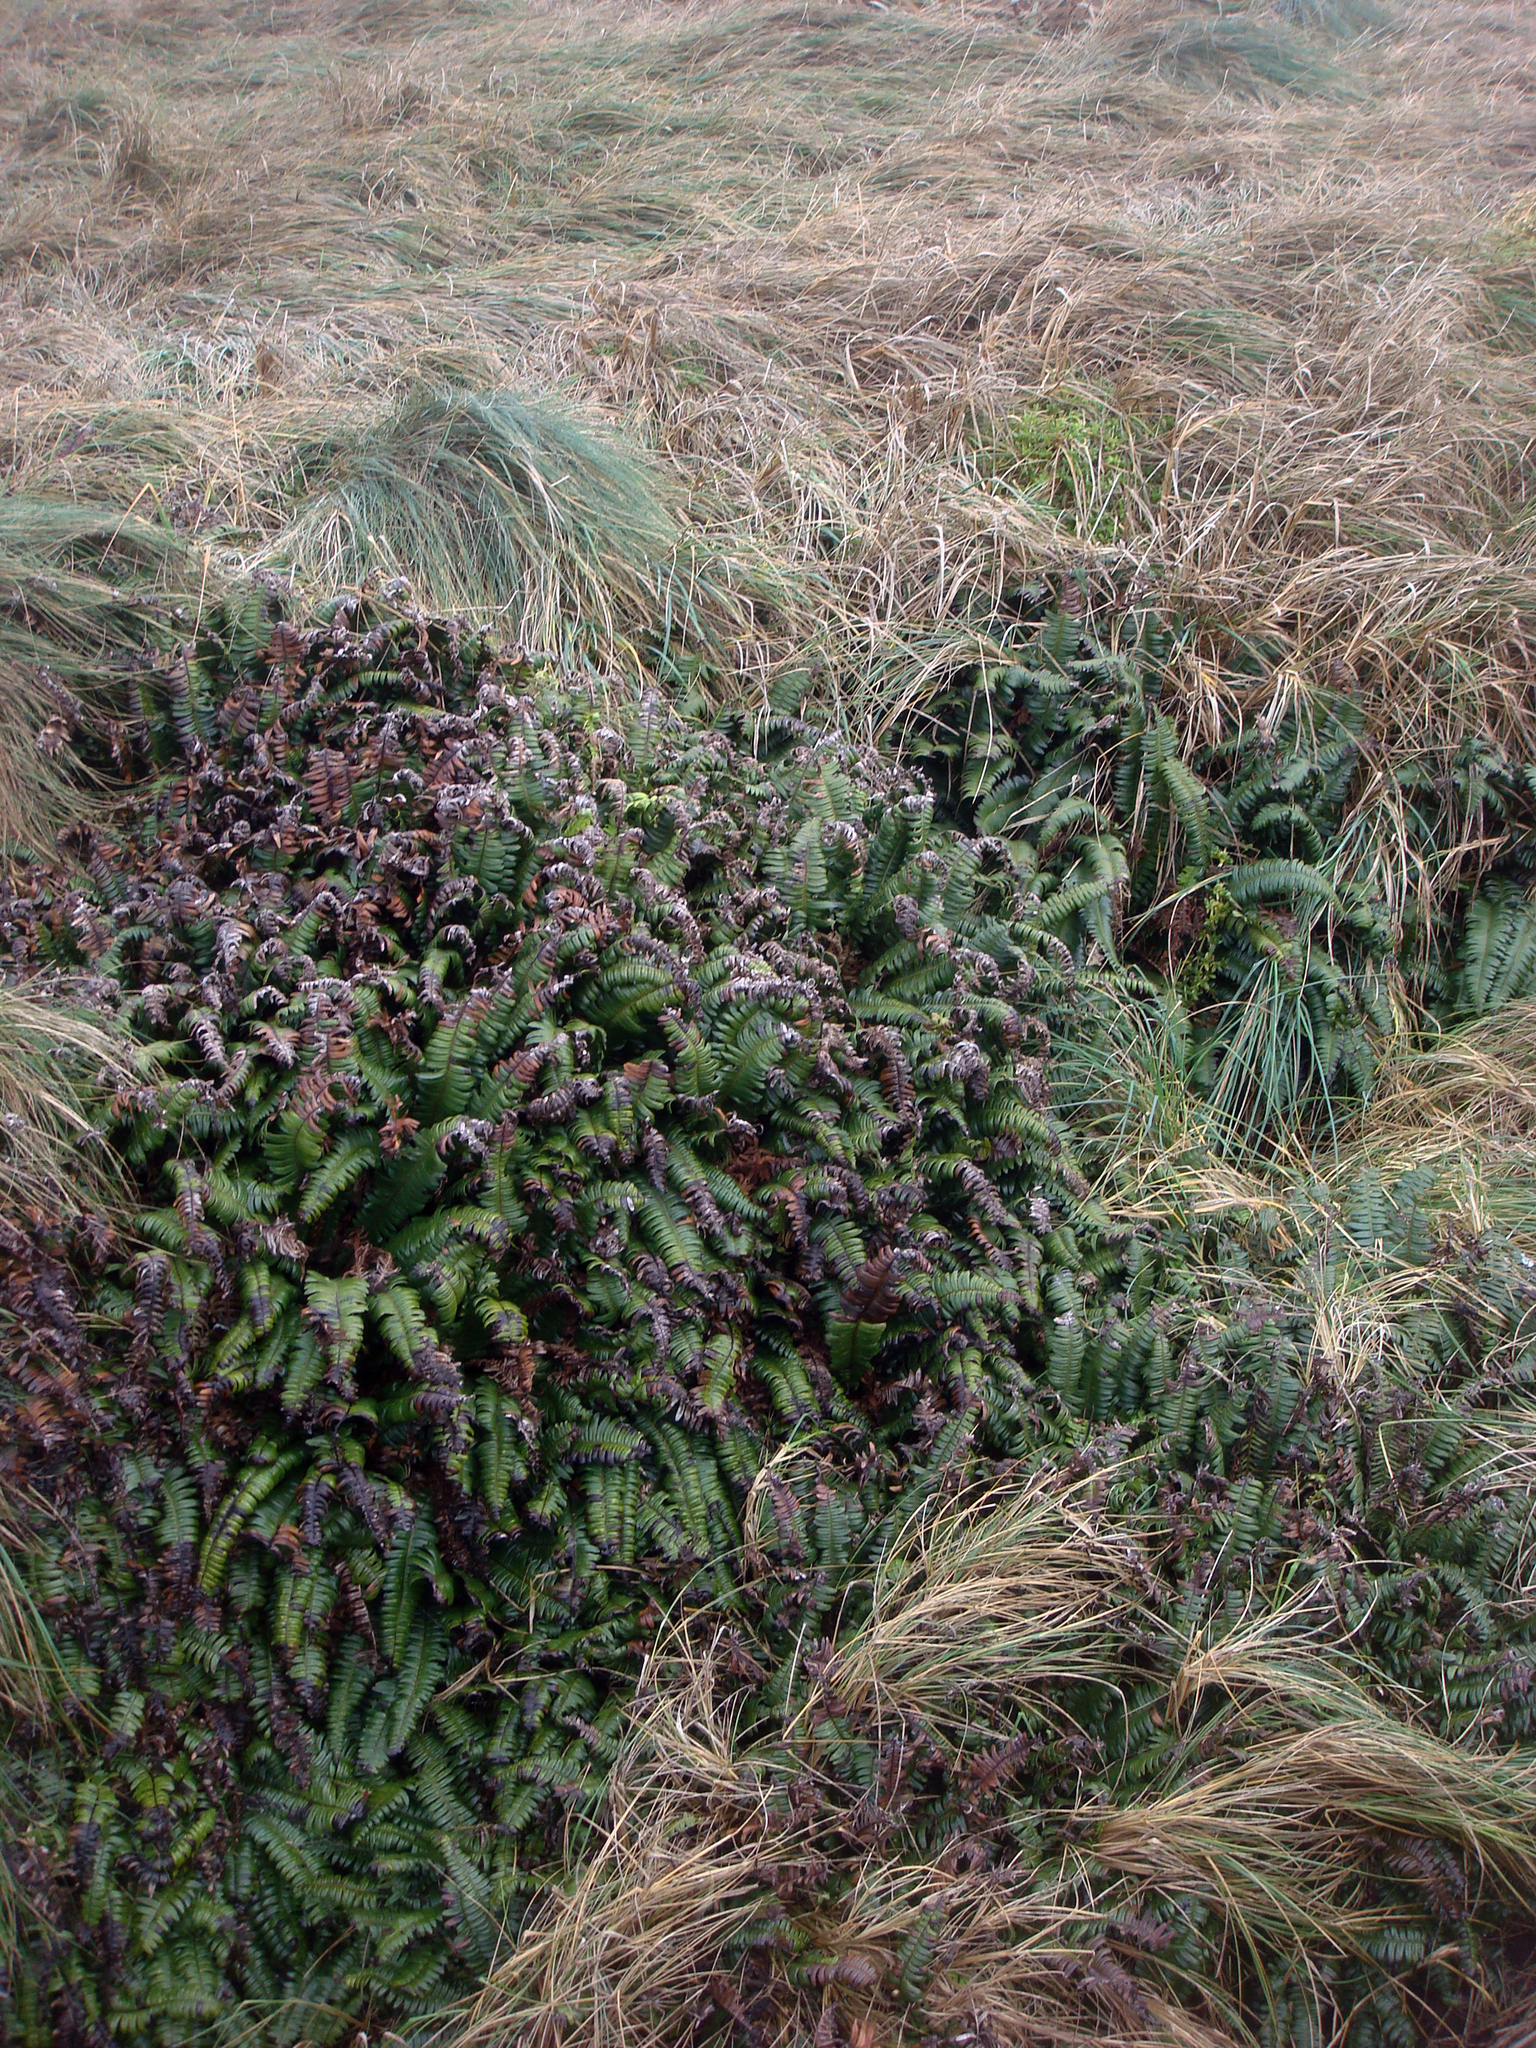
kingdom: Plantae
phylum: Tracheophyta
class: Polypodiopsida
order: Polypodiales
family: Blechnaceae
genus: Austroblechnum
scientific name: Austroblechnum durum
